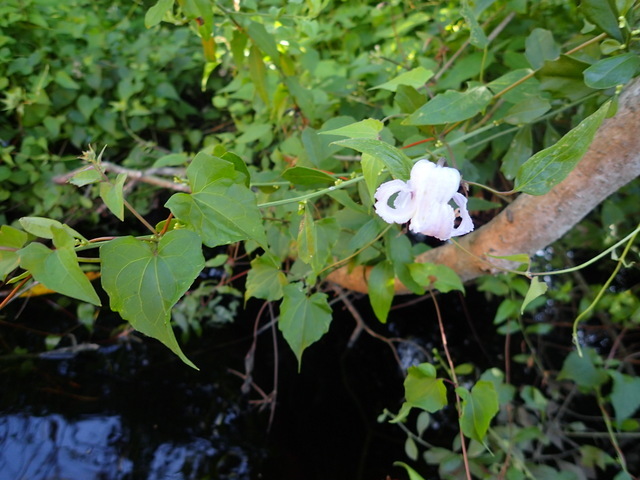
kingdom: Plantae
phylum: Tracheophyta
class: Magnoliopsida
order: Ranunculales
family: Ranunculaceae
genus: Clematis
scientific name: Clematis crispa
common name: Curly clematis
